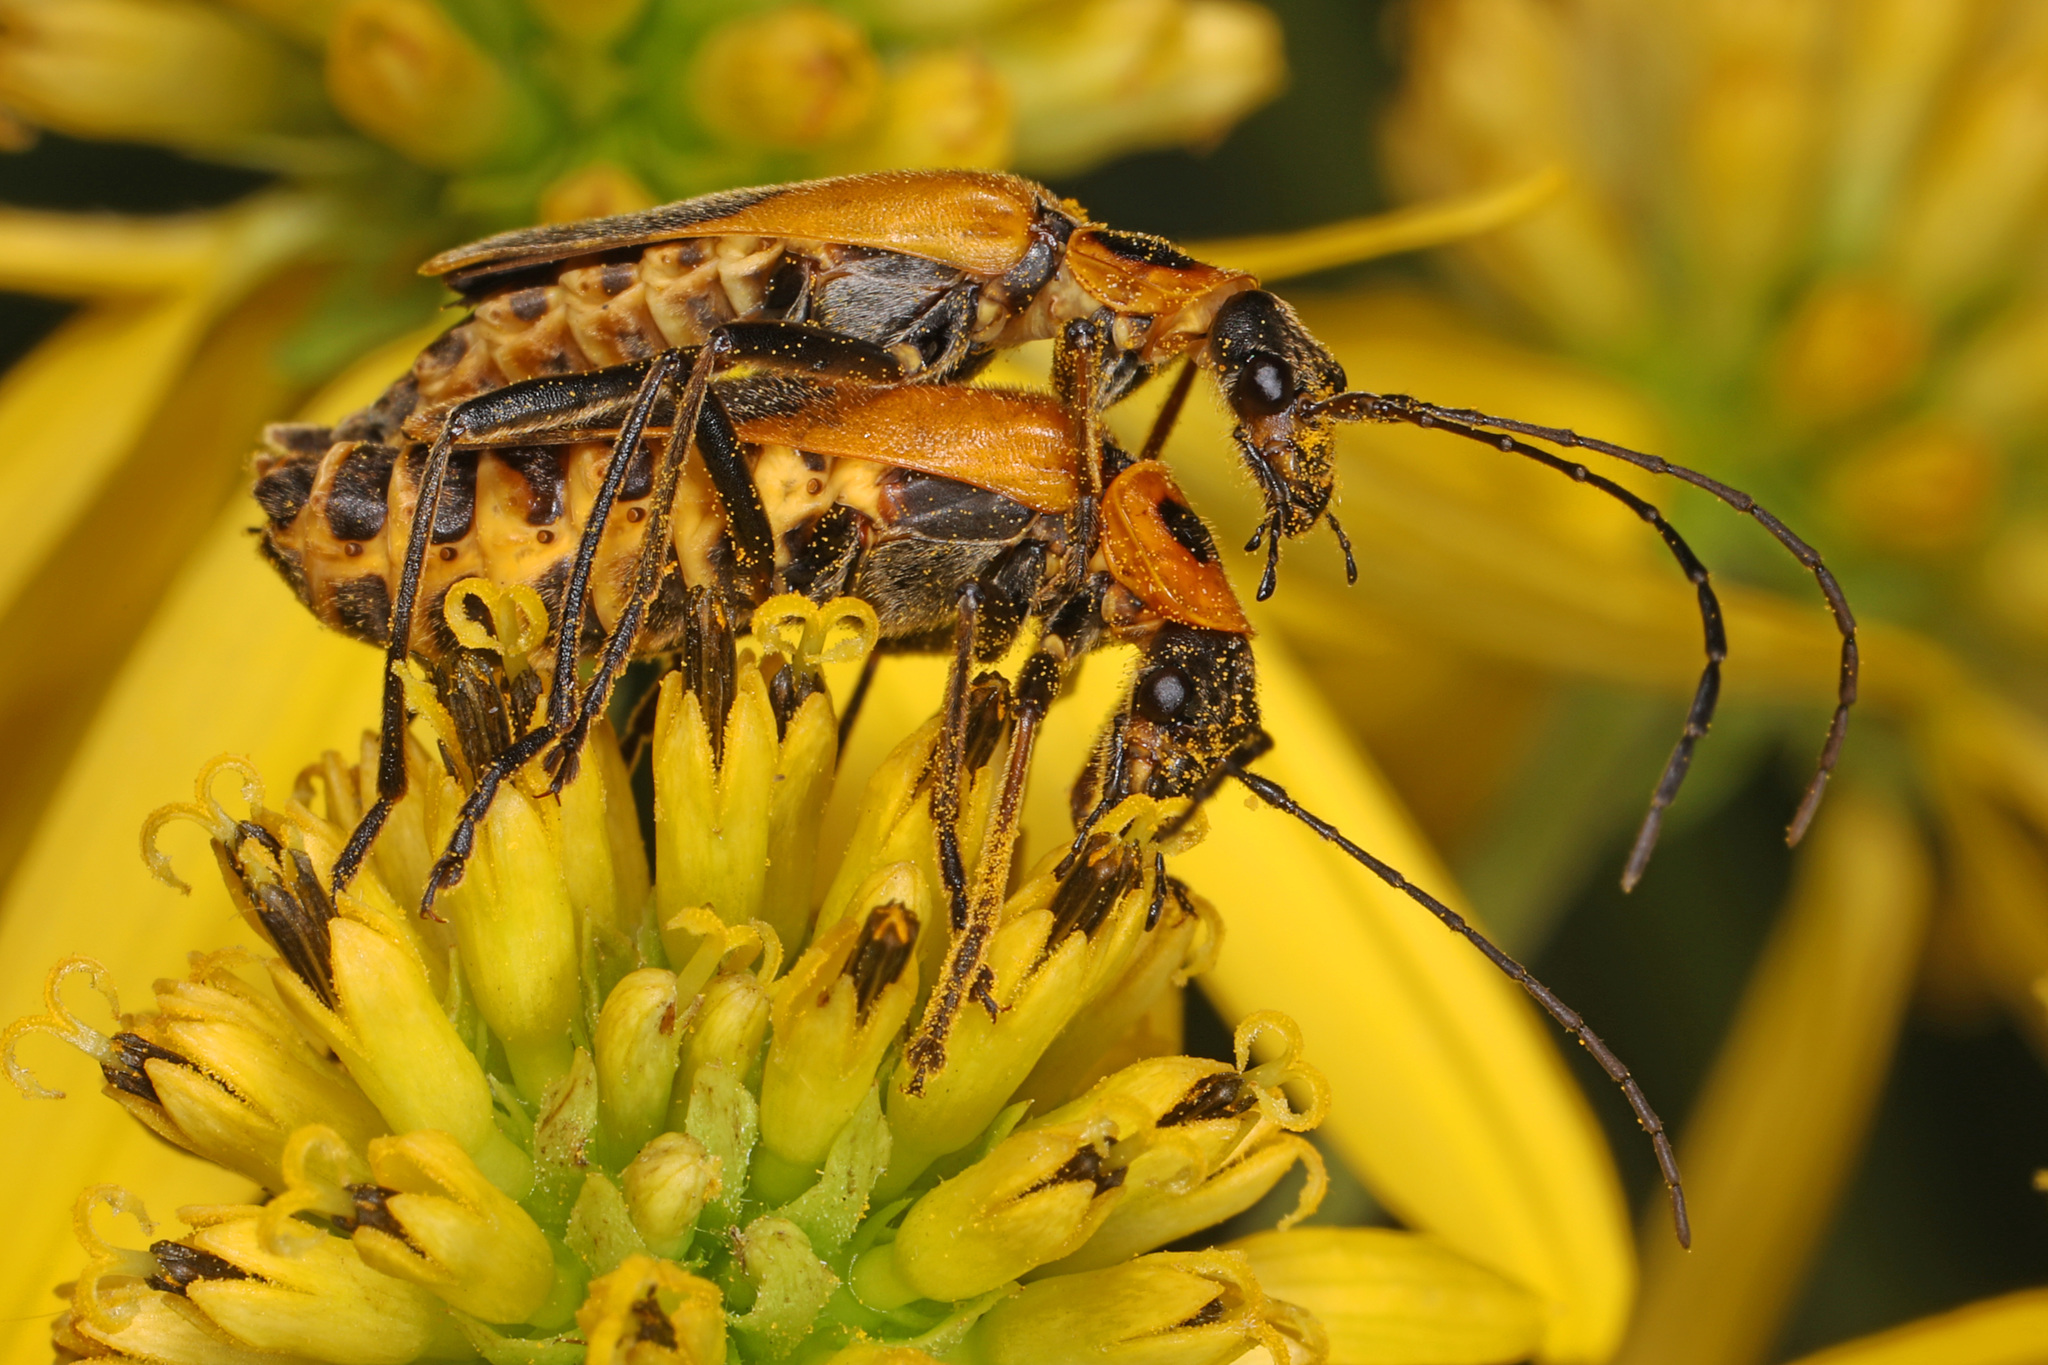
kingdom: Animalia
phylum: Arthropoda
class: Insecta
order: Coleoptera
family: Cantharidae
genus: Chauliognathus
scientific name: Chauliognathus pensylvanicus
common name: Goldenrod soldier beetle
